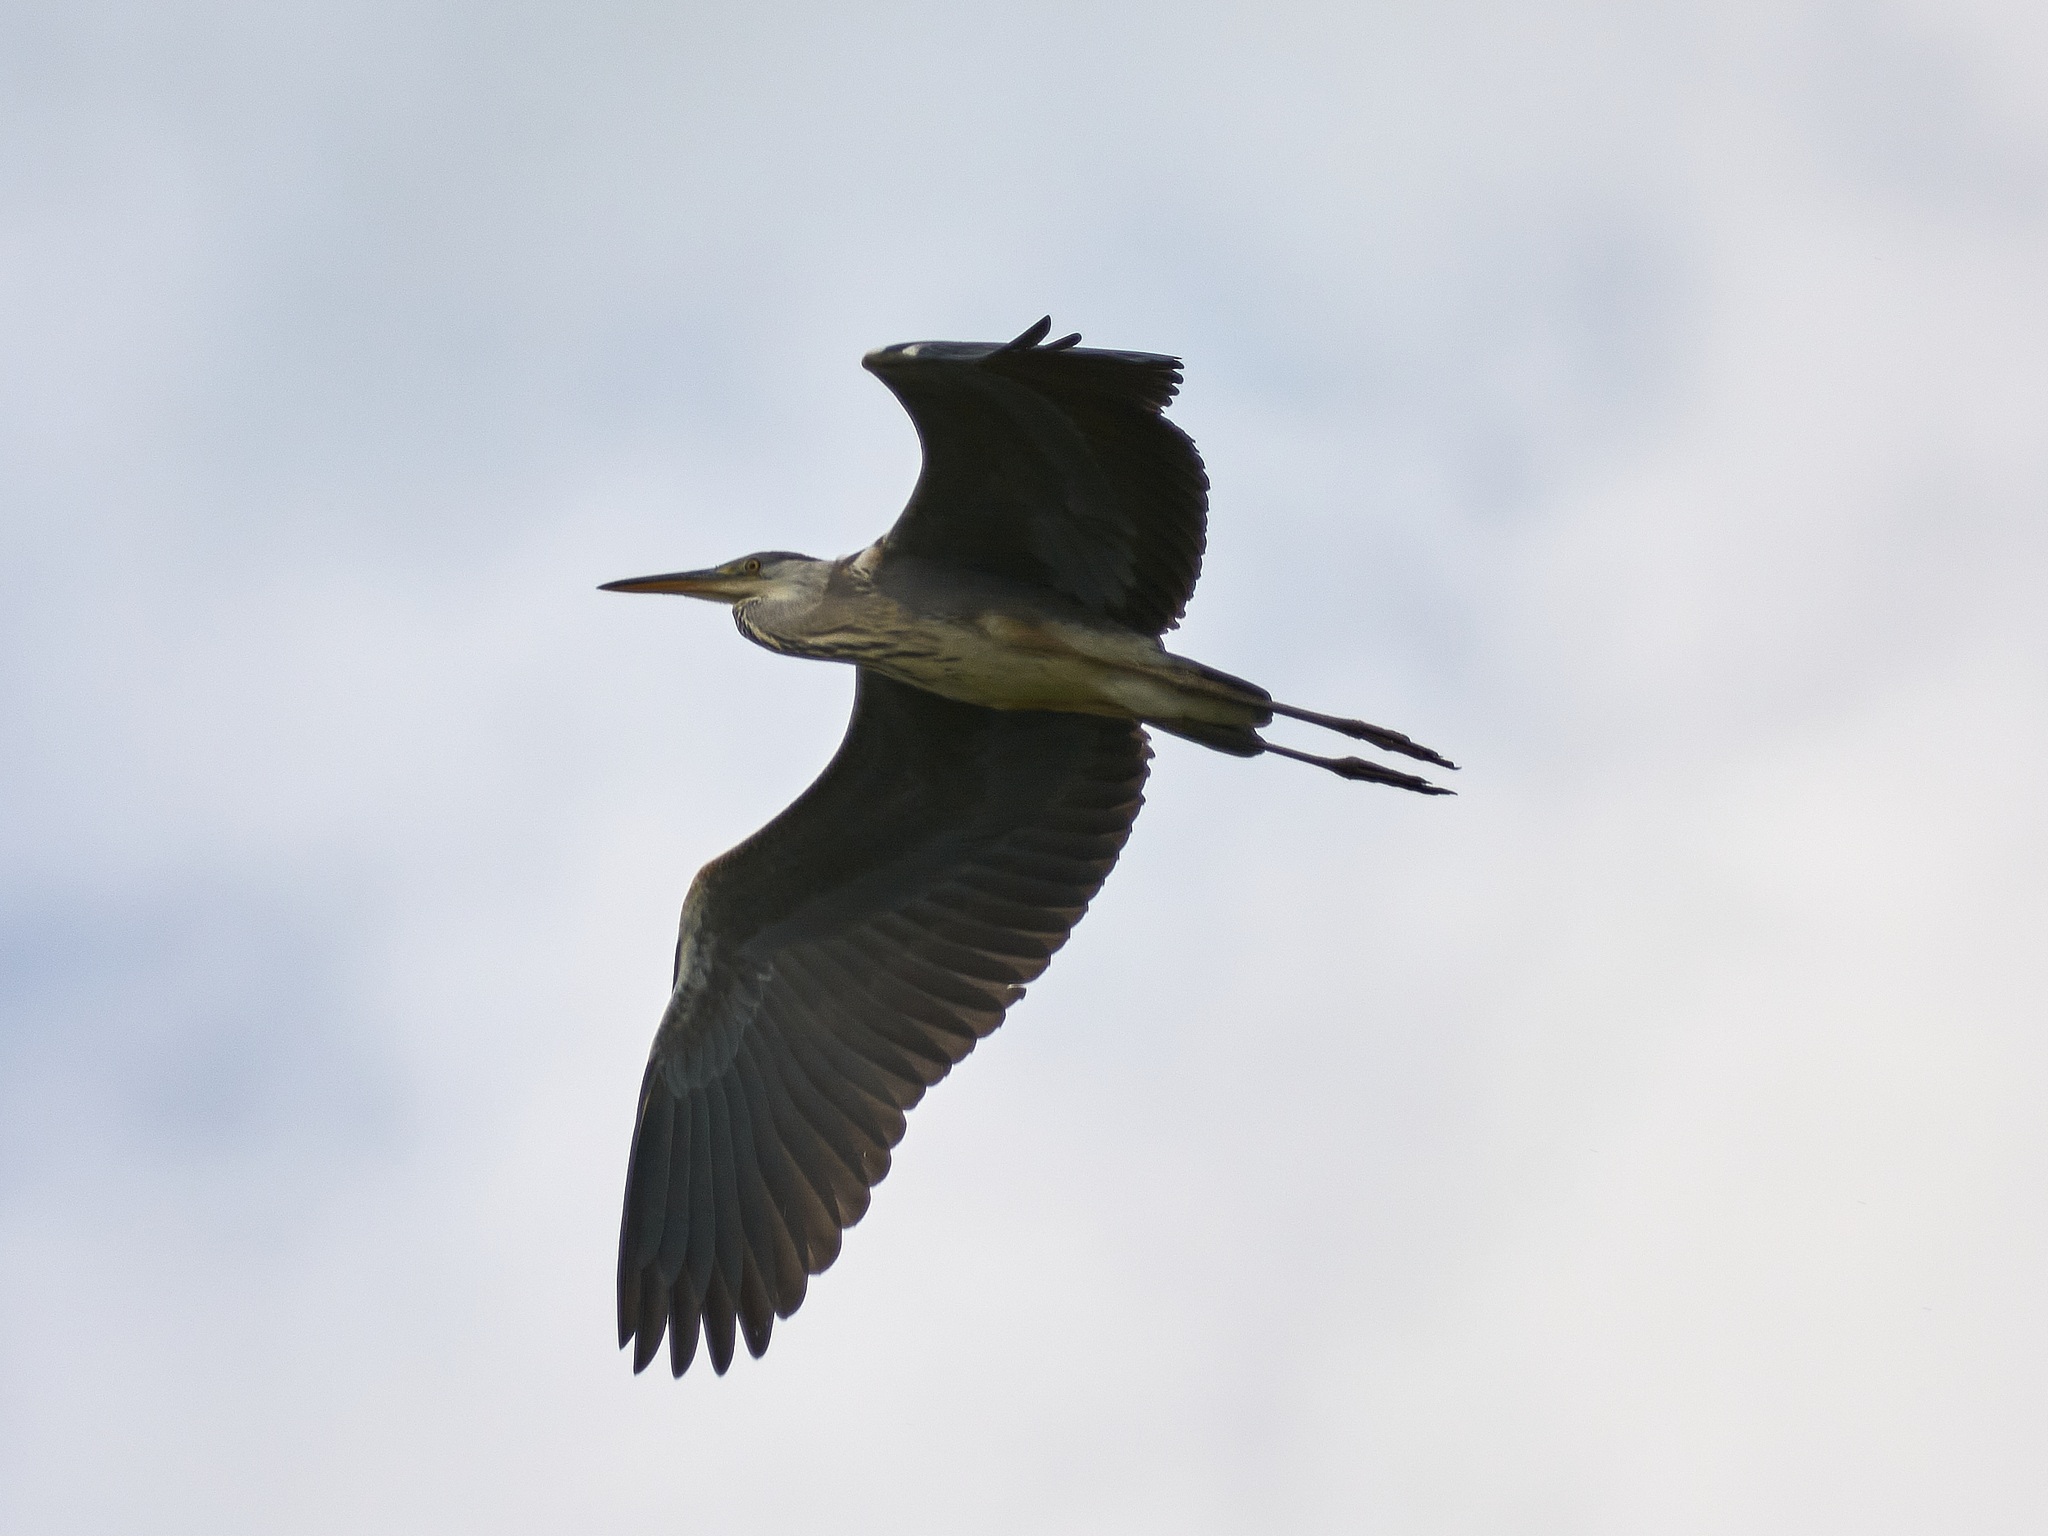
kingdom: Animalia
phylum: Chordata
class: Aves
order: Pelecaniformes
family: Ardeidae
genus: Ardea
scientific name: Ardea cinerea
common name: Grey heron
